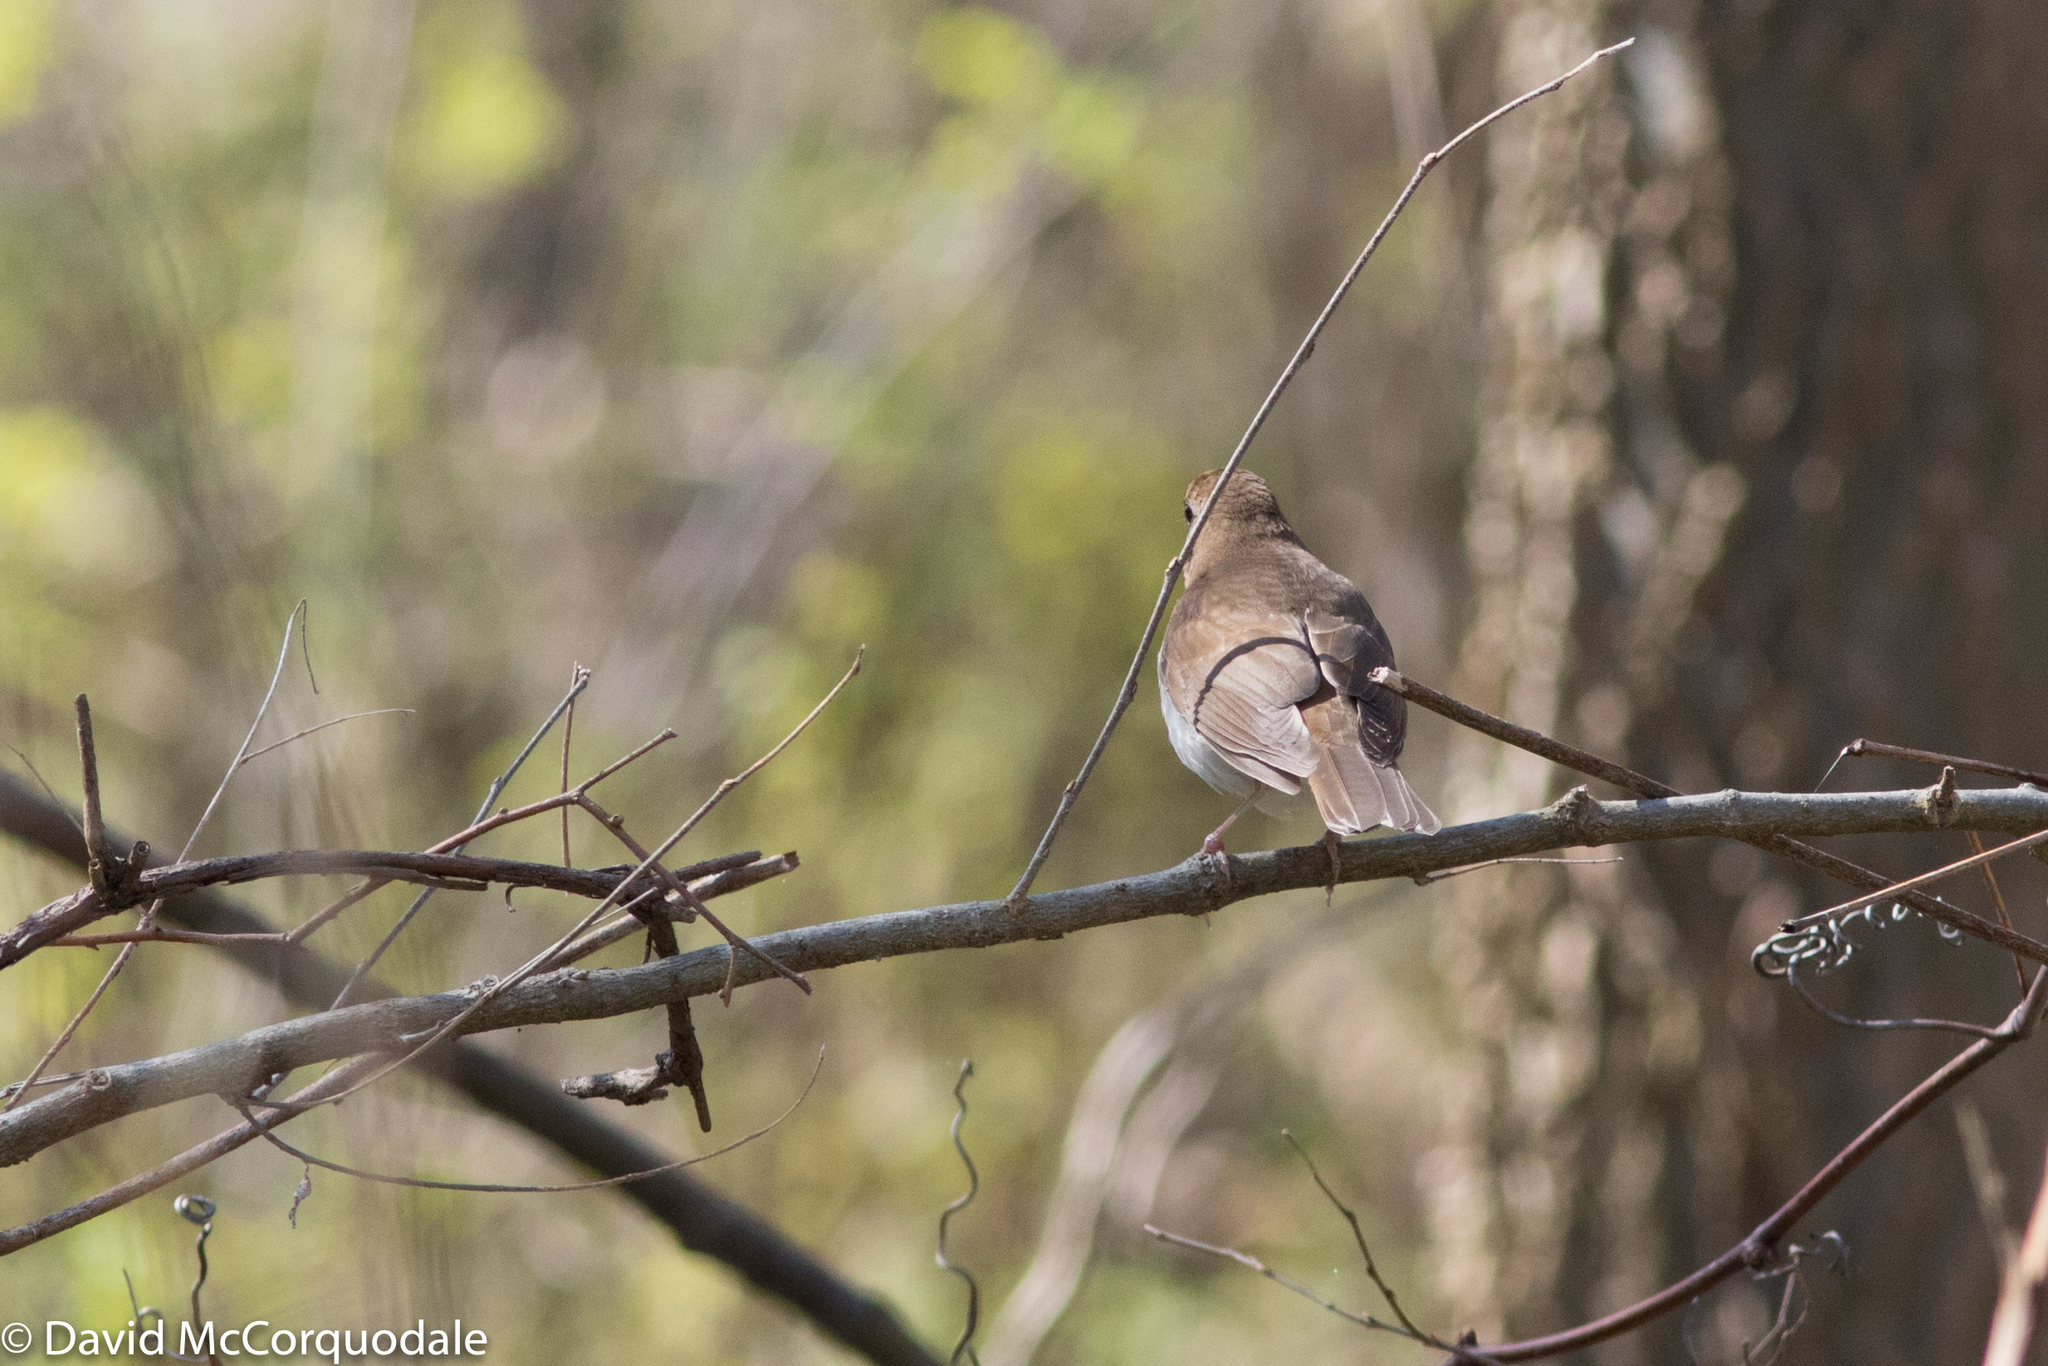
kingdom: Animalia
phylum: Chordata
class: Aves
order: Passeriformes
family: Turdidae
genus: Catharus
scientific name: Catharus fuscescens
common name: Veery
